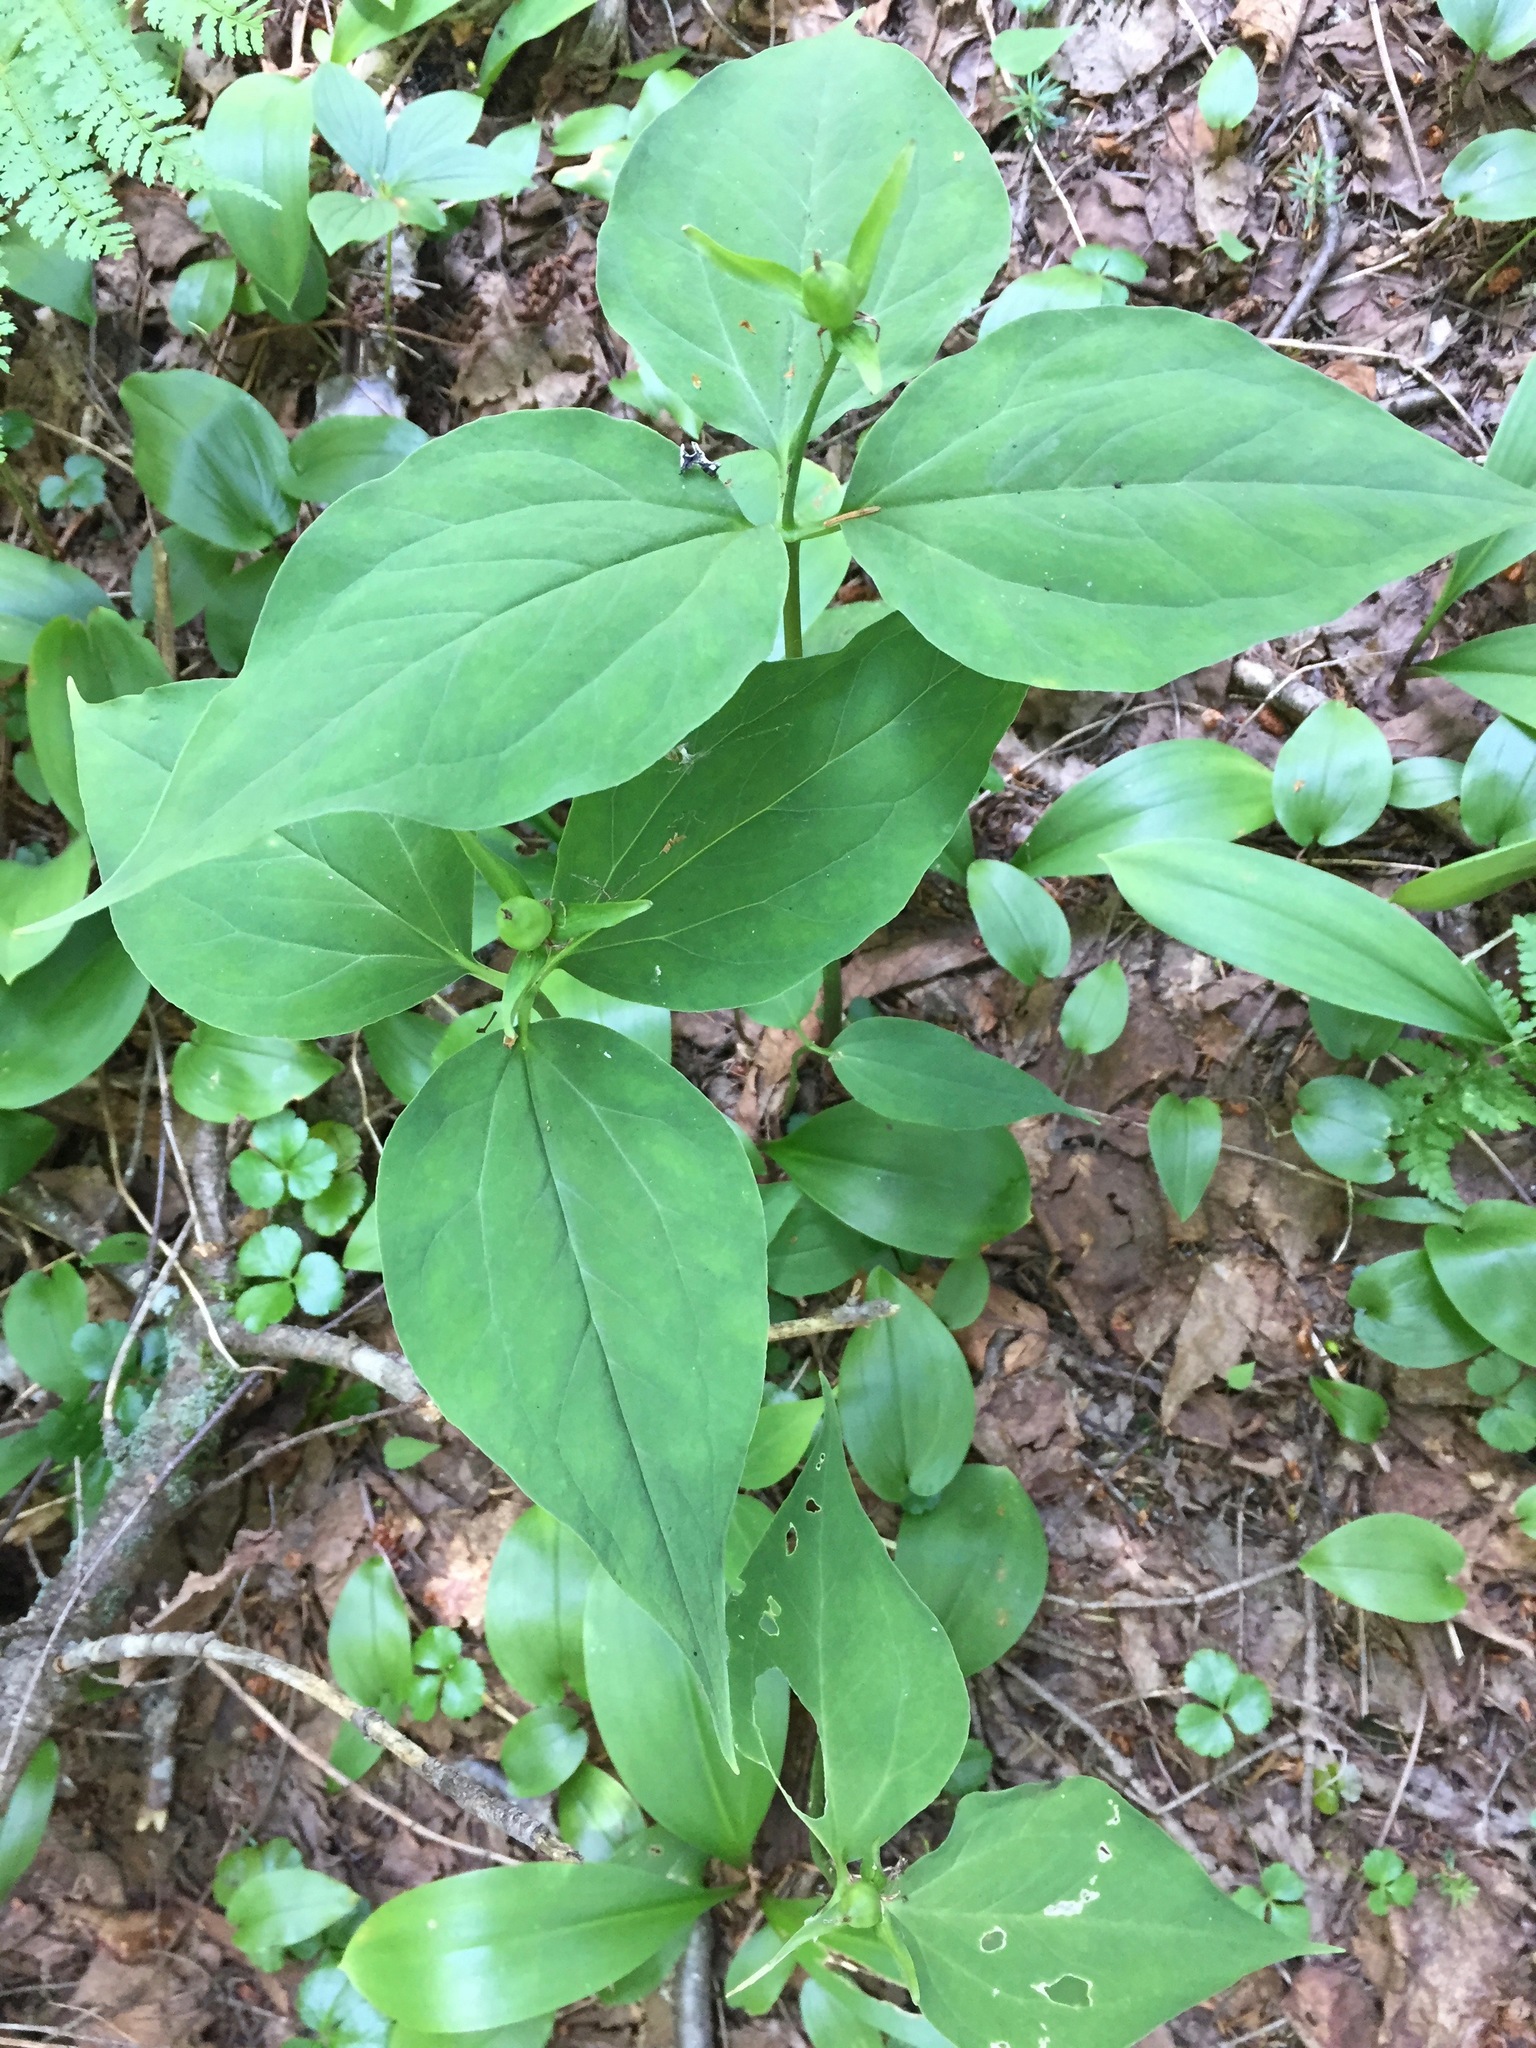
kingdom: Plantae
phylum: Tracheophyta
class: Liliopsida
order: Liliales
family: Melanthiaceae
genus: Trillium
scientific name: Trillium undulatum
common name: Paint trillium
